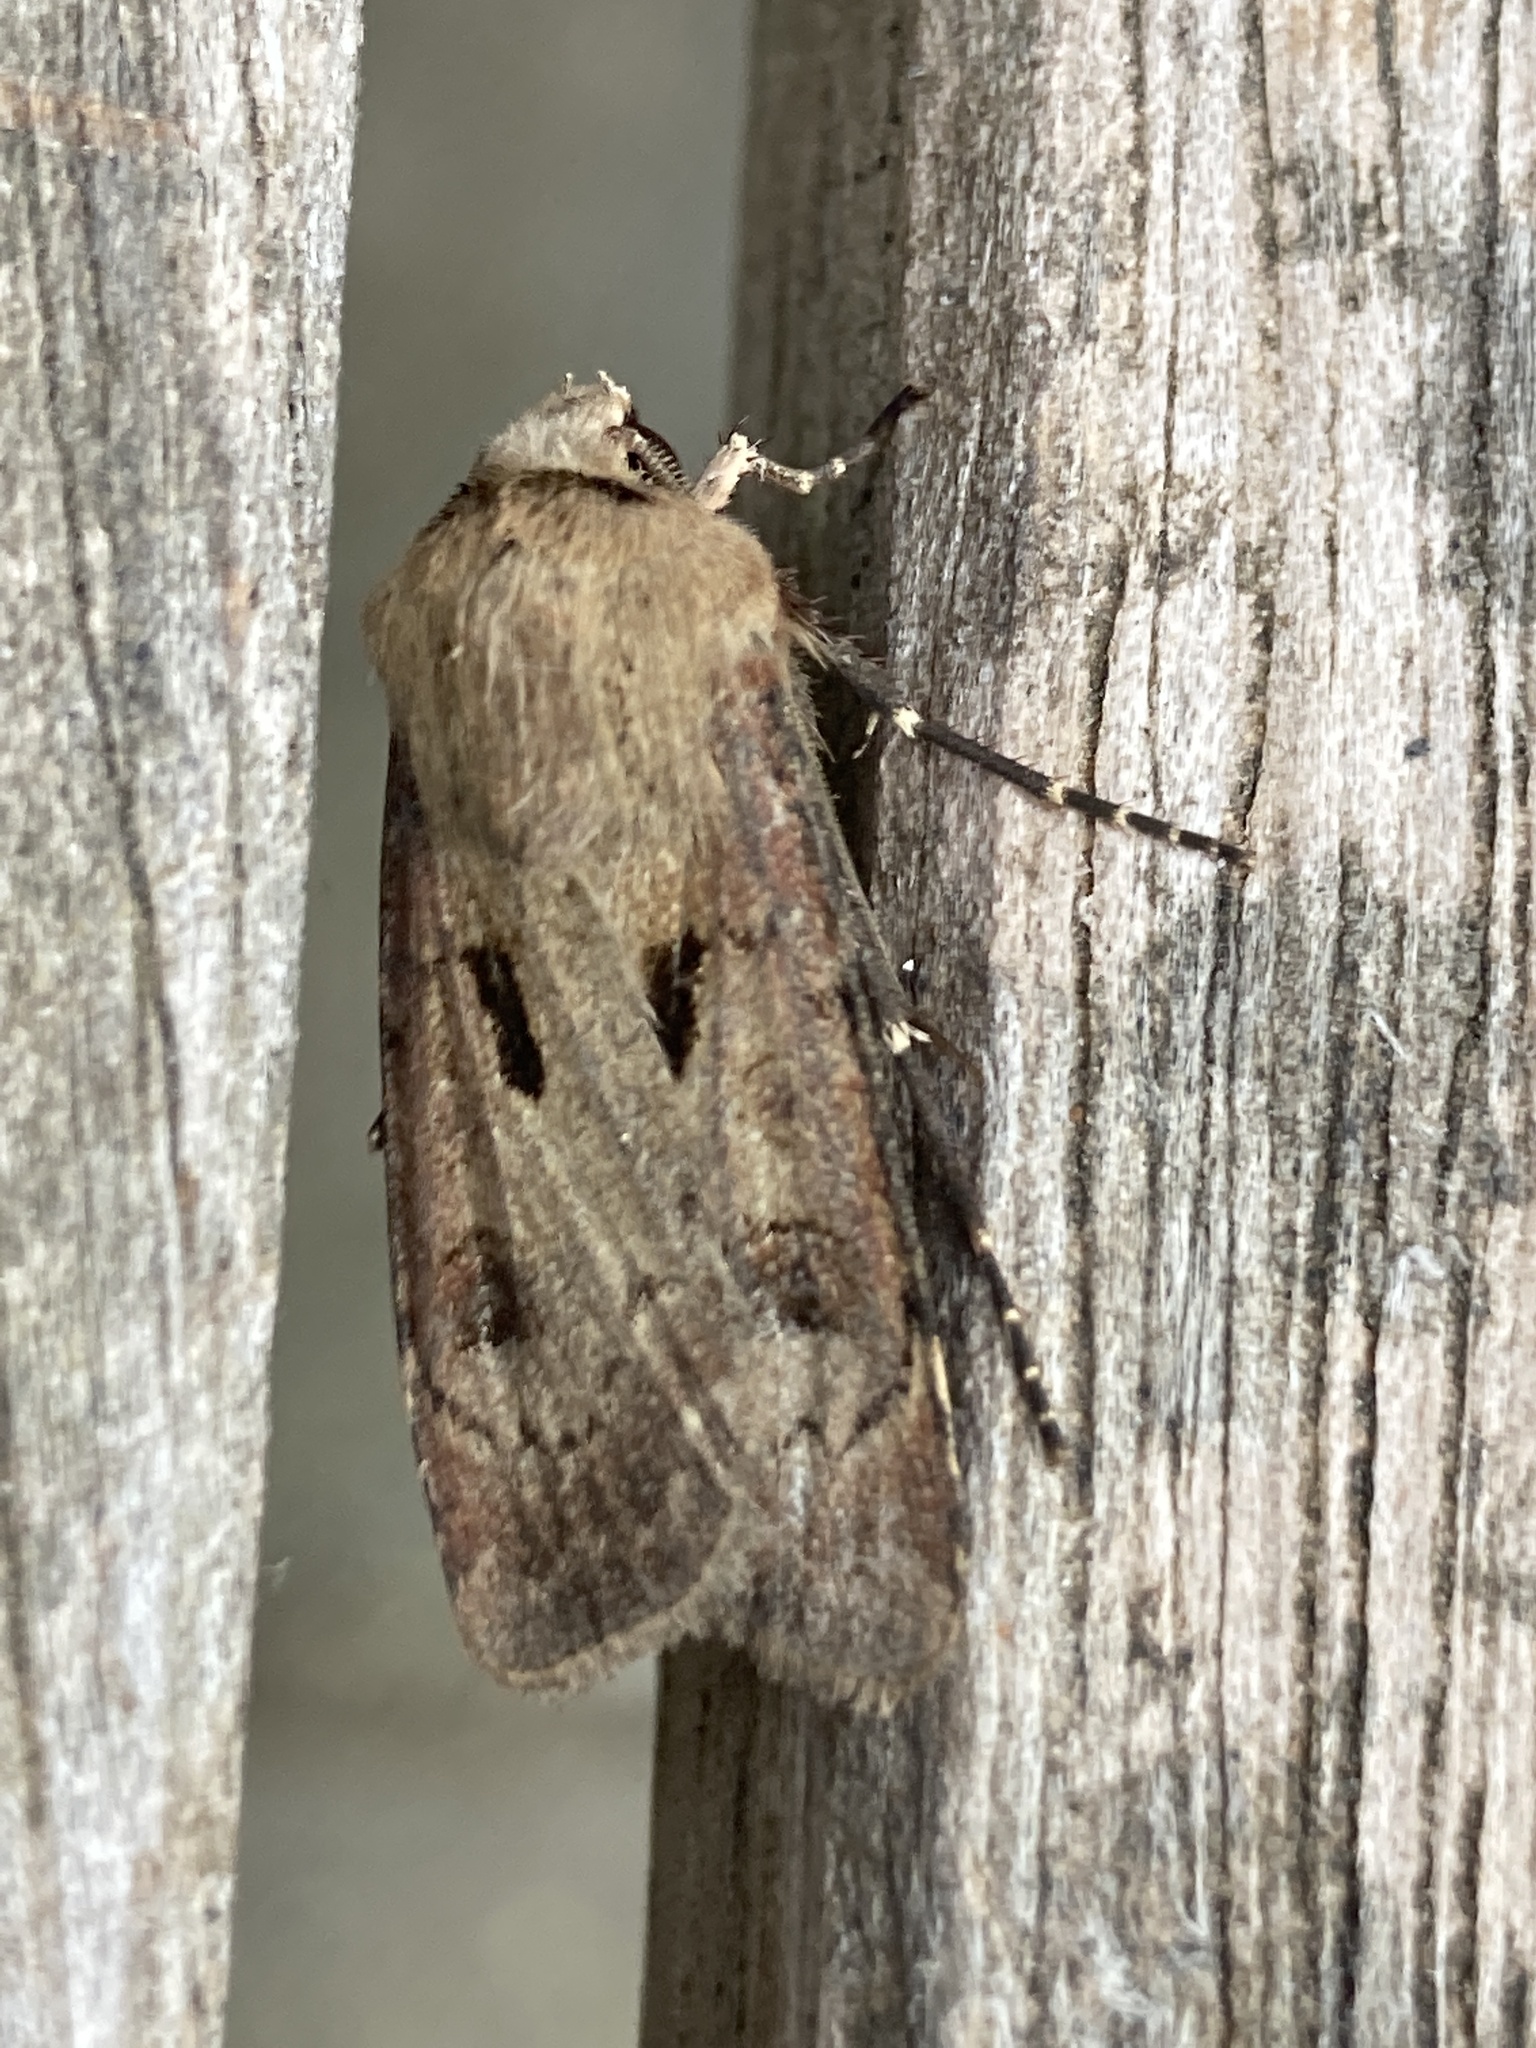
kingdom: Animalia
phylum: Arthropoda
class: Insecta
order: Lepidoptera
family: Noctuidae
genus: Agrotis
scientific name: Agrotis exclamationis
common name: Heart and dart
